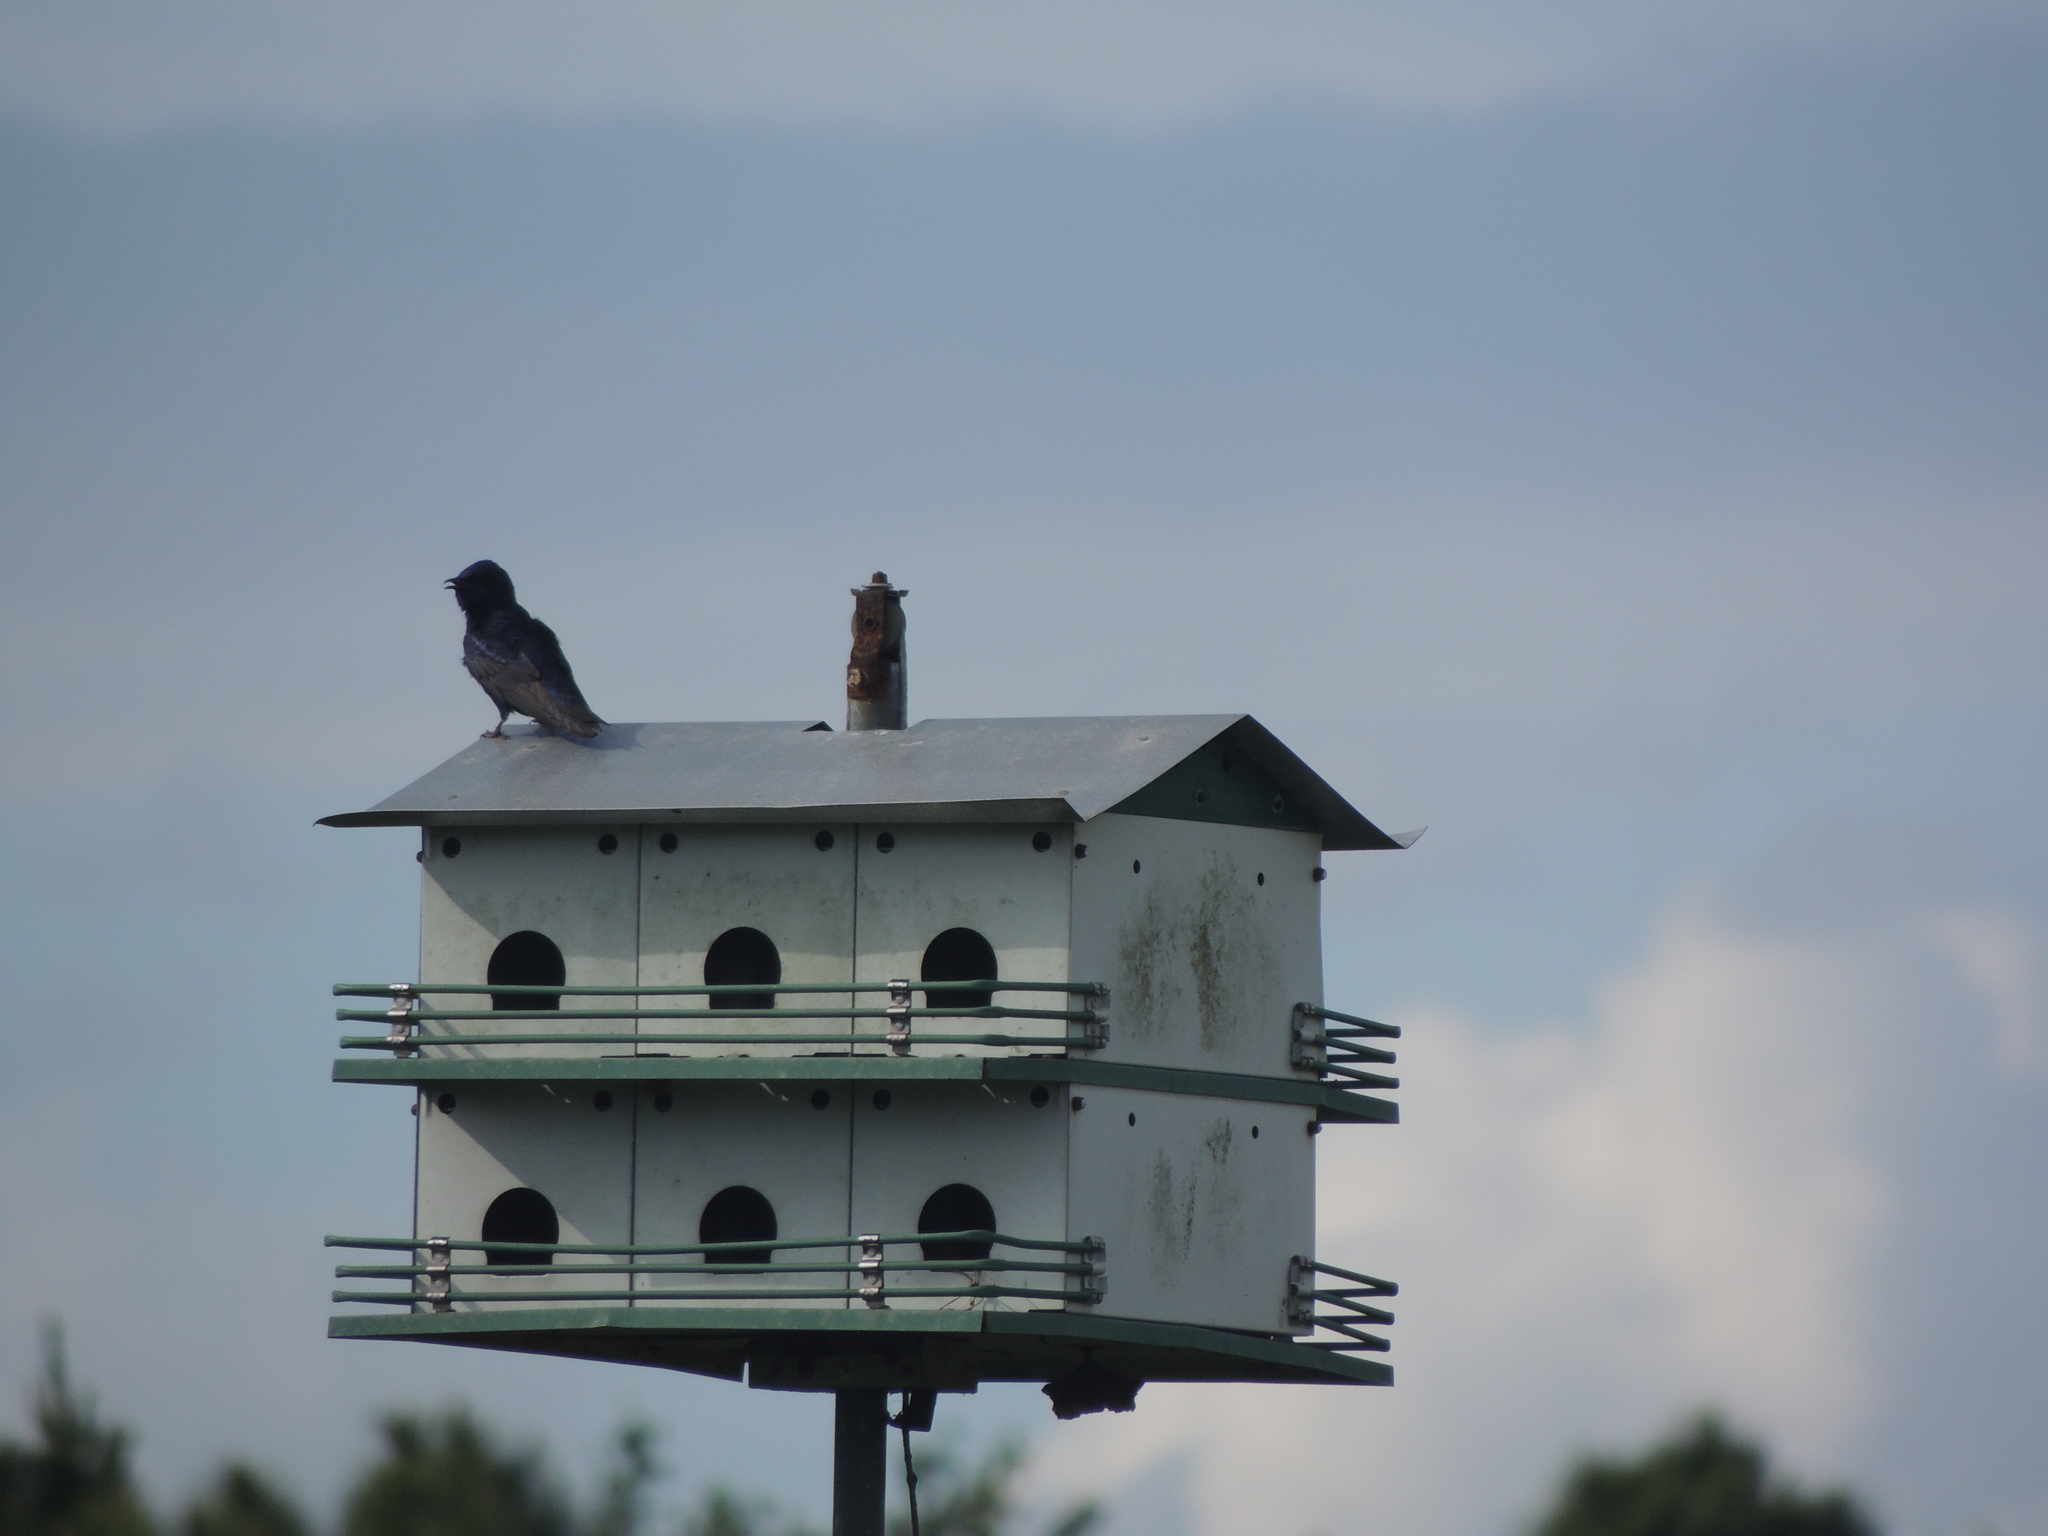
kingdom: Animalia
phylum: Chordata
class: Aves
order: Passeriformes
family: Hirundinidae
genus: Progne
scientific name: Progne subis
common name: Purple martin
